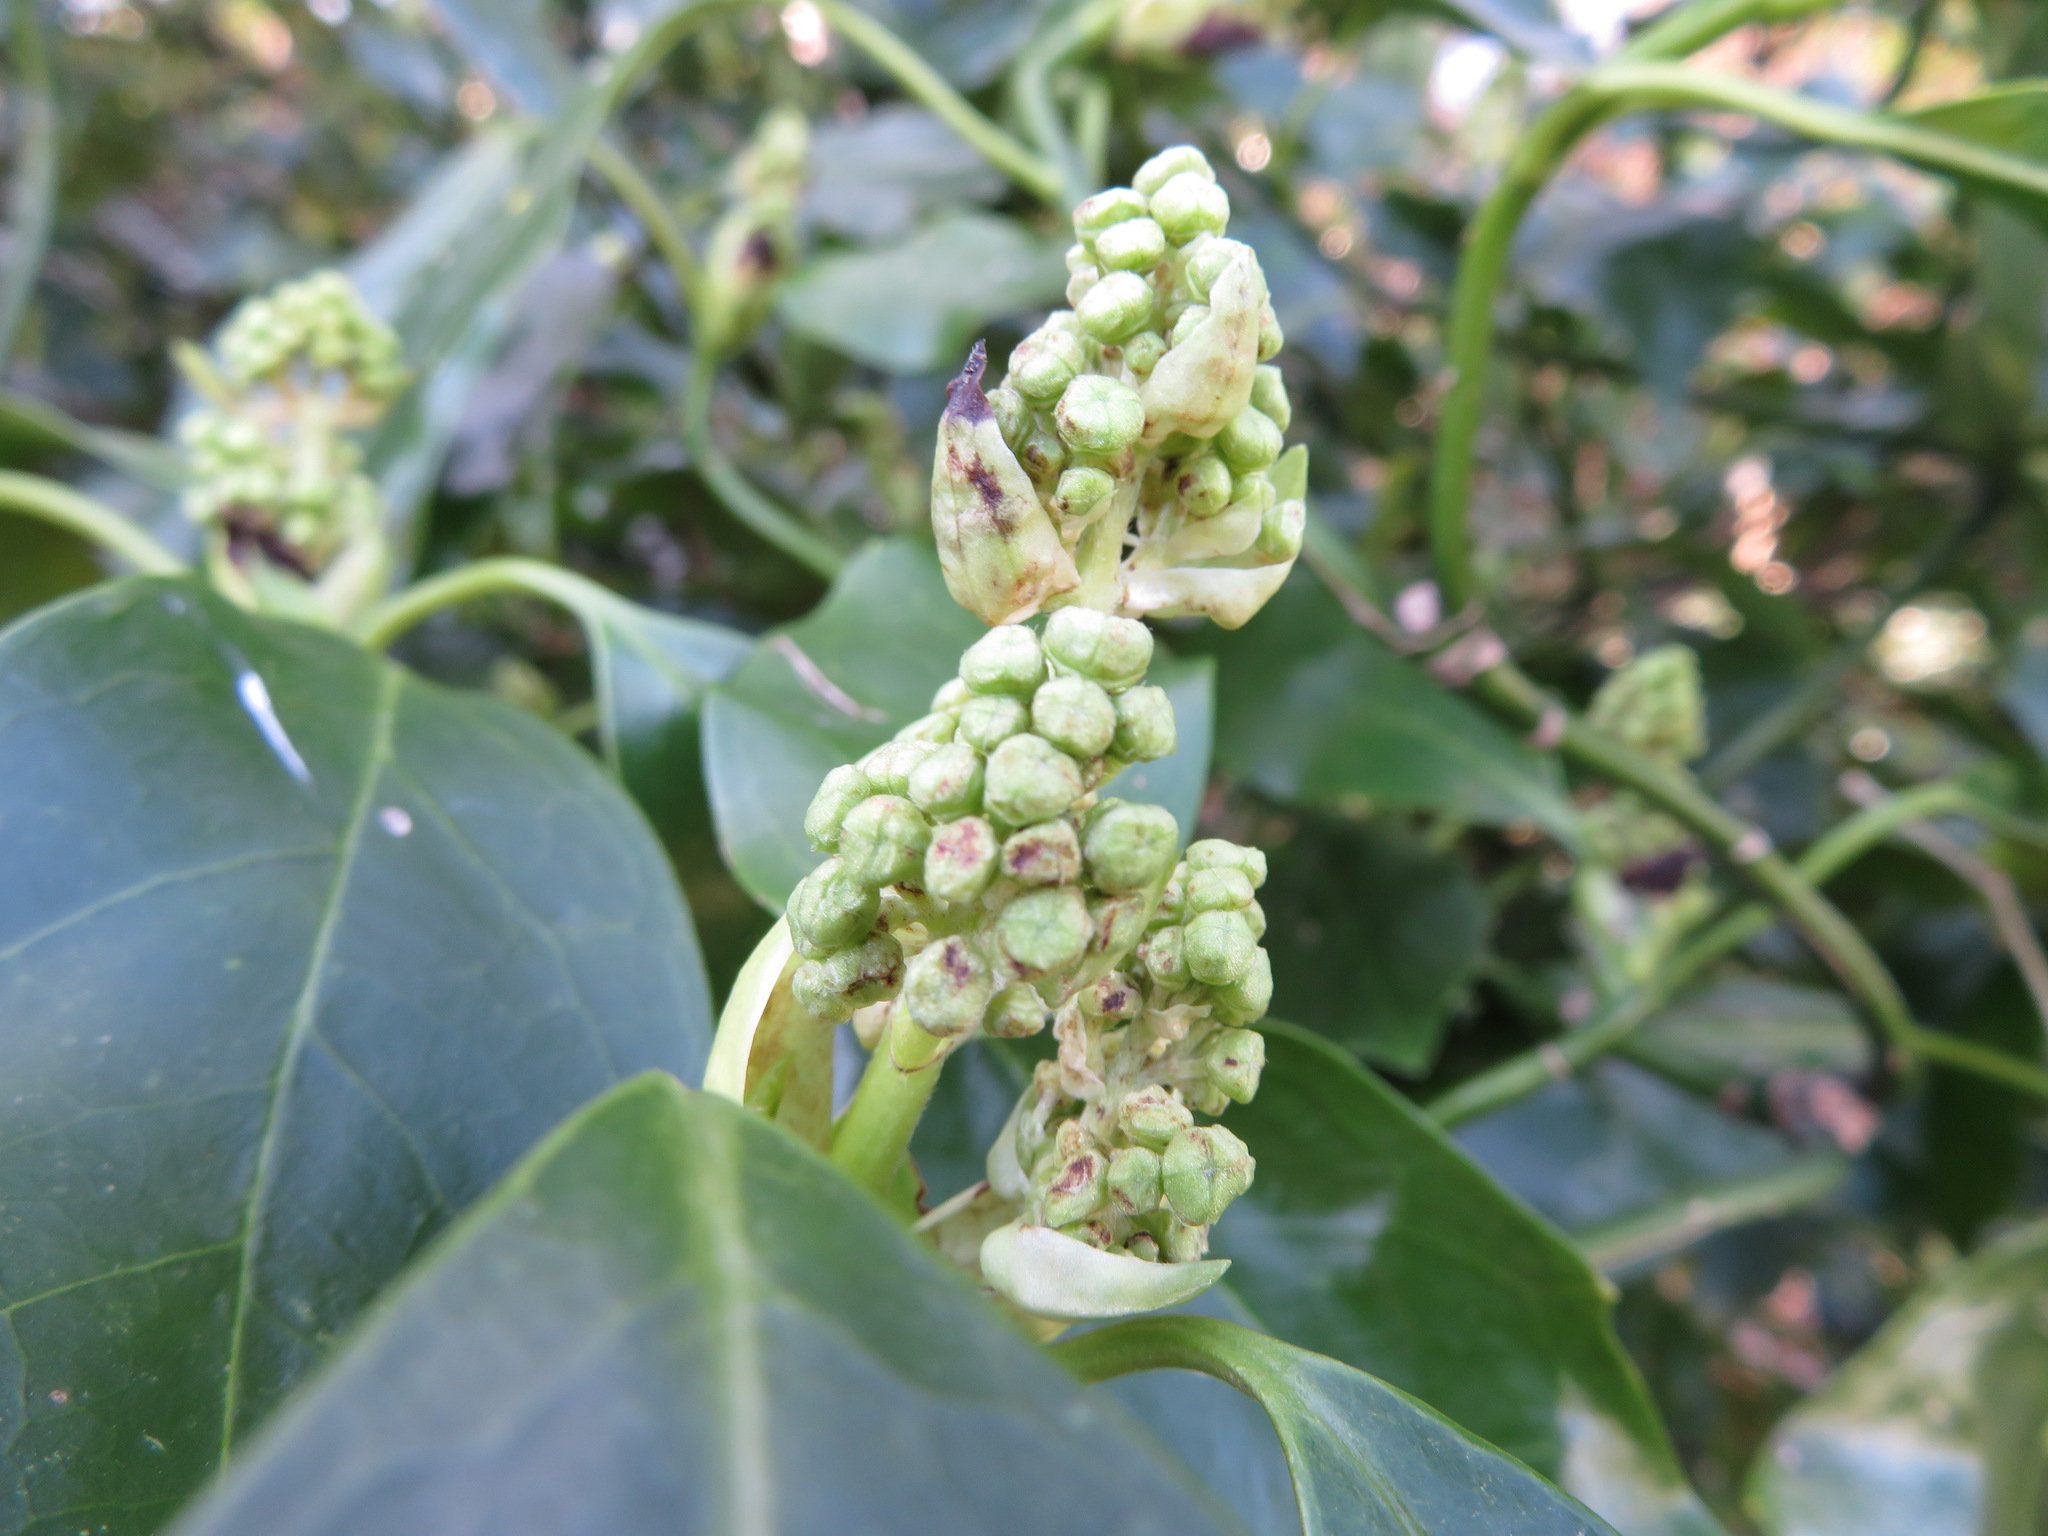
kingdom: Plantae
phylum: Tracheophyta
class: Magnoliopsida
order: Garryales
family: Garryaceae
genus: Aucuba
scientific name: Aucuba japonica
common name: Spotted-laurel
